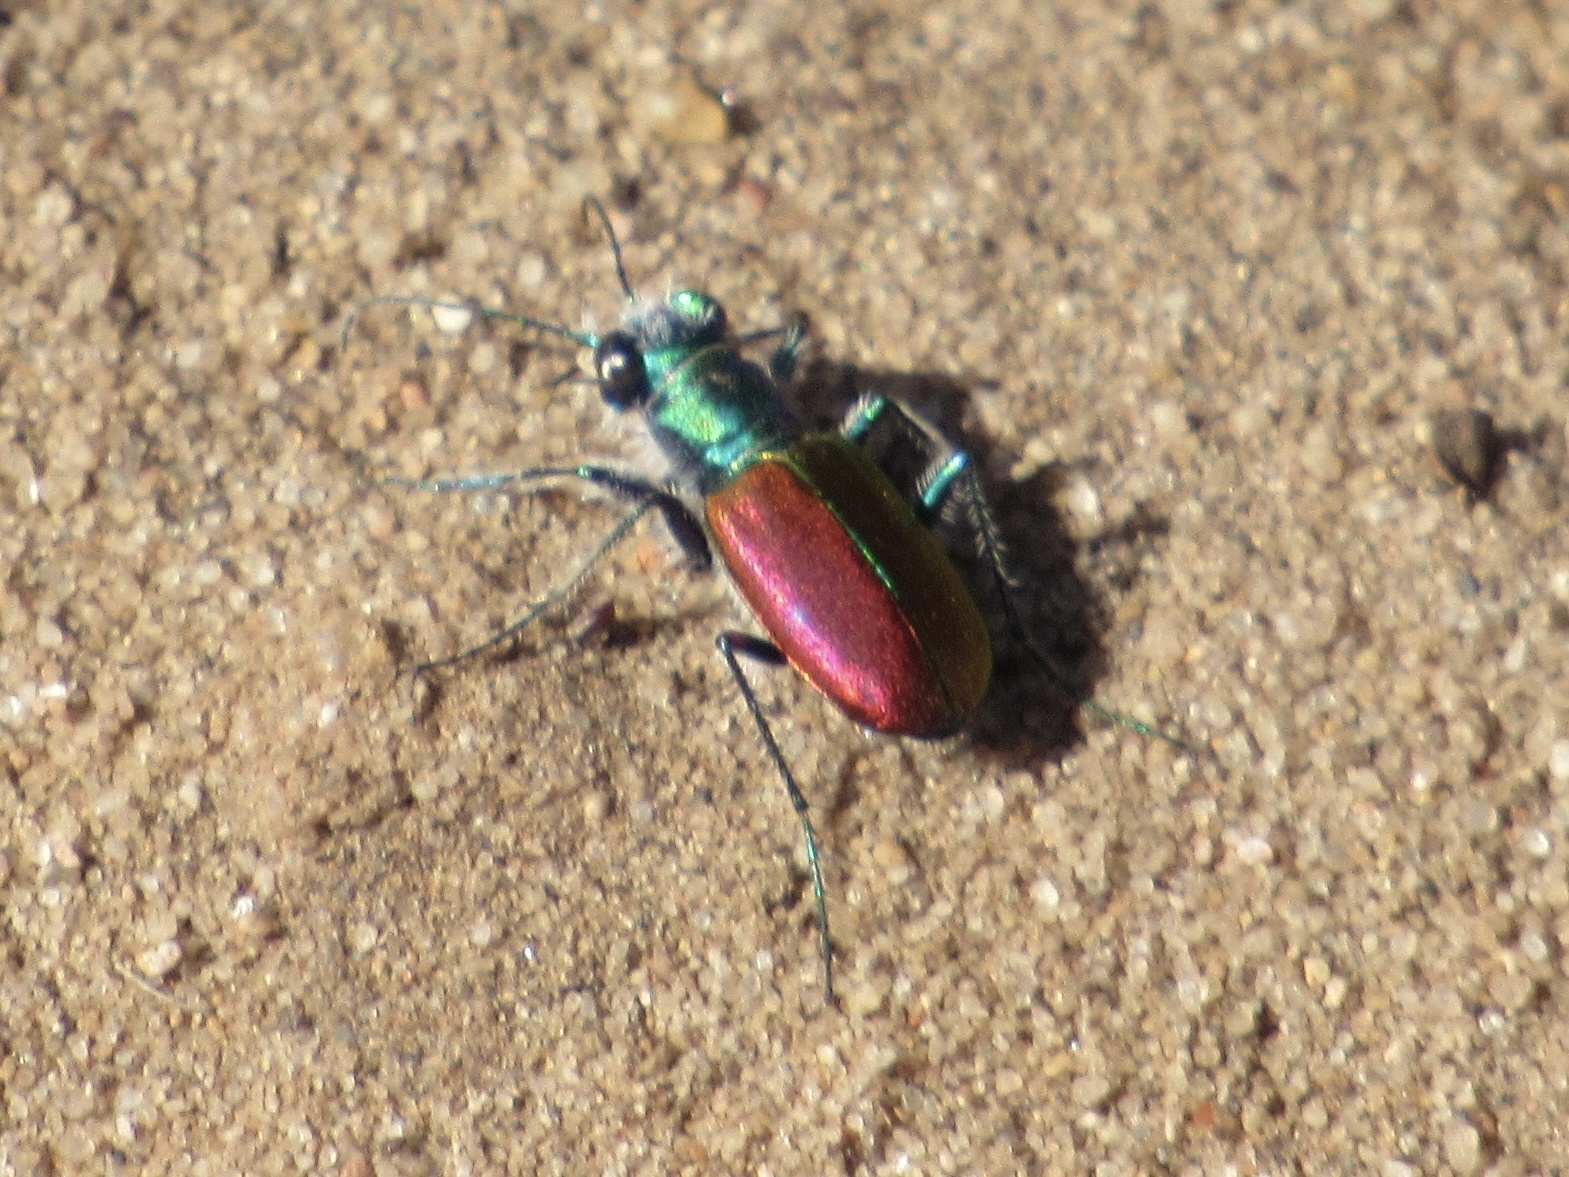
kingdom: Animalia
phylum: Arthropoda
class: Insecta
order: Coleoptera
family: Carabidae
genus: Cicindela
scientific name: Cicindela scutellaris
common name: Festive tiger beetle
